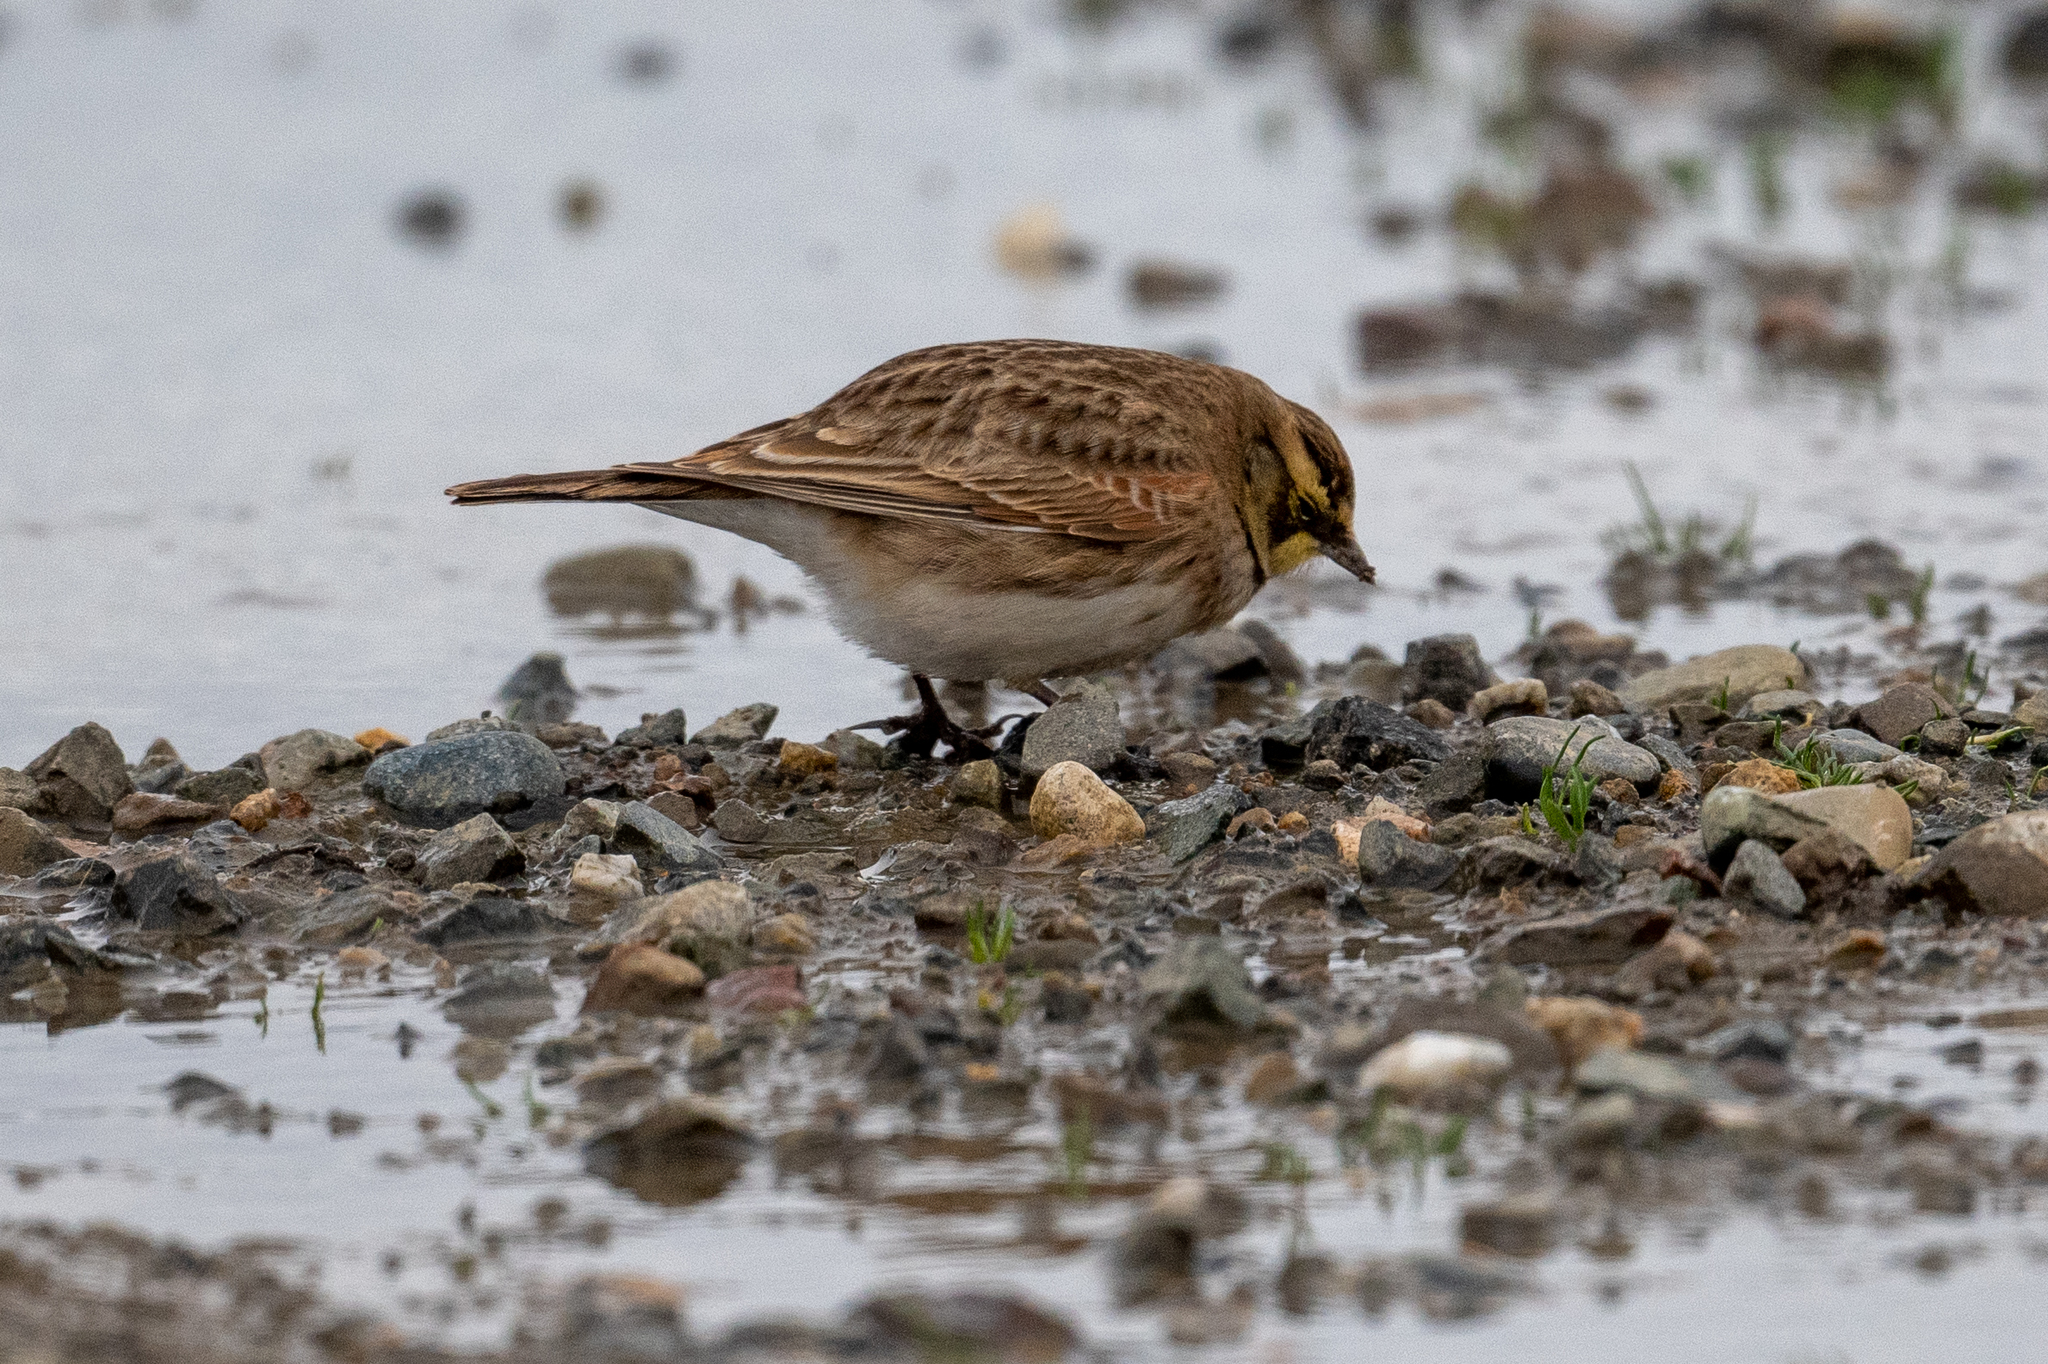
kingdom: Animalia
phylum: Chordata
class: Aves
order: Passeriformes
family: Alaudidae
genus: Eremophila
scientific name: Eremophila alpestris
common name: Horned lark
